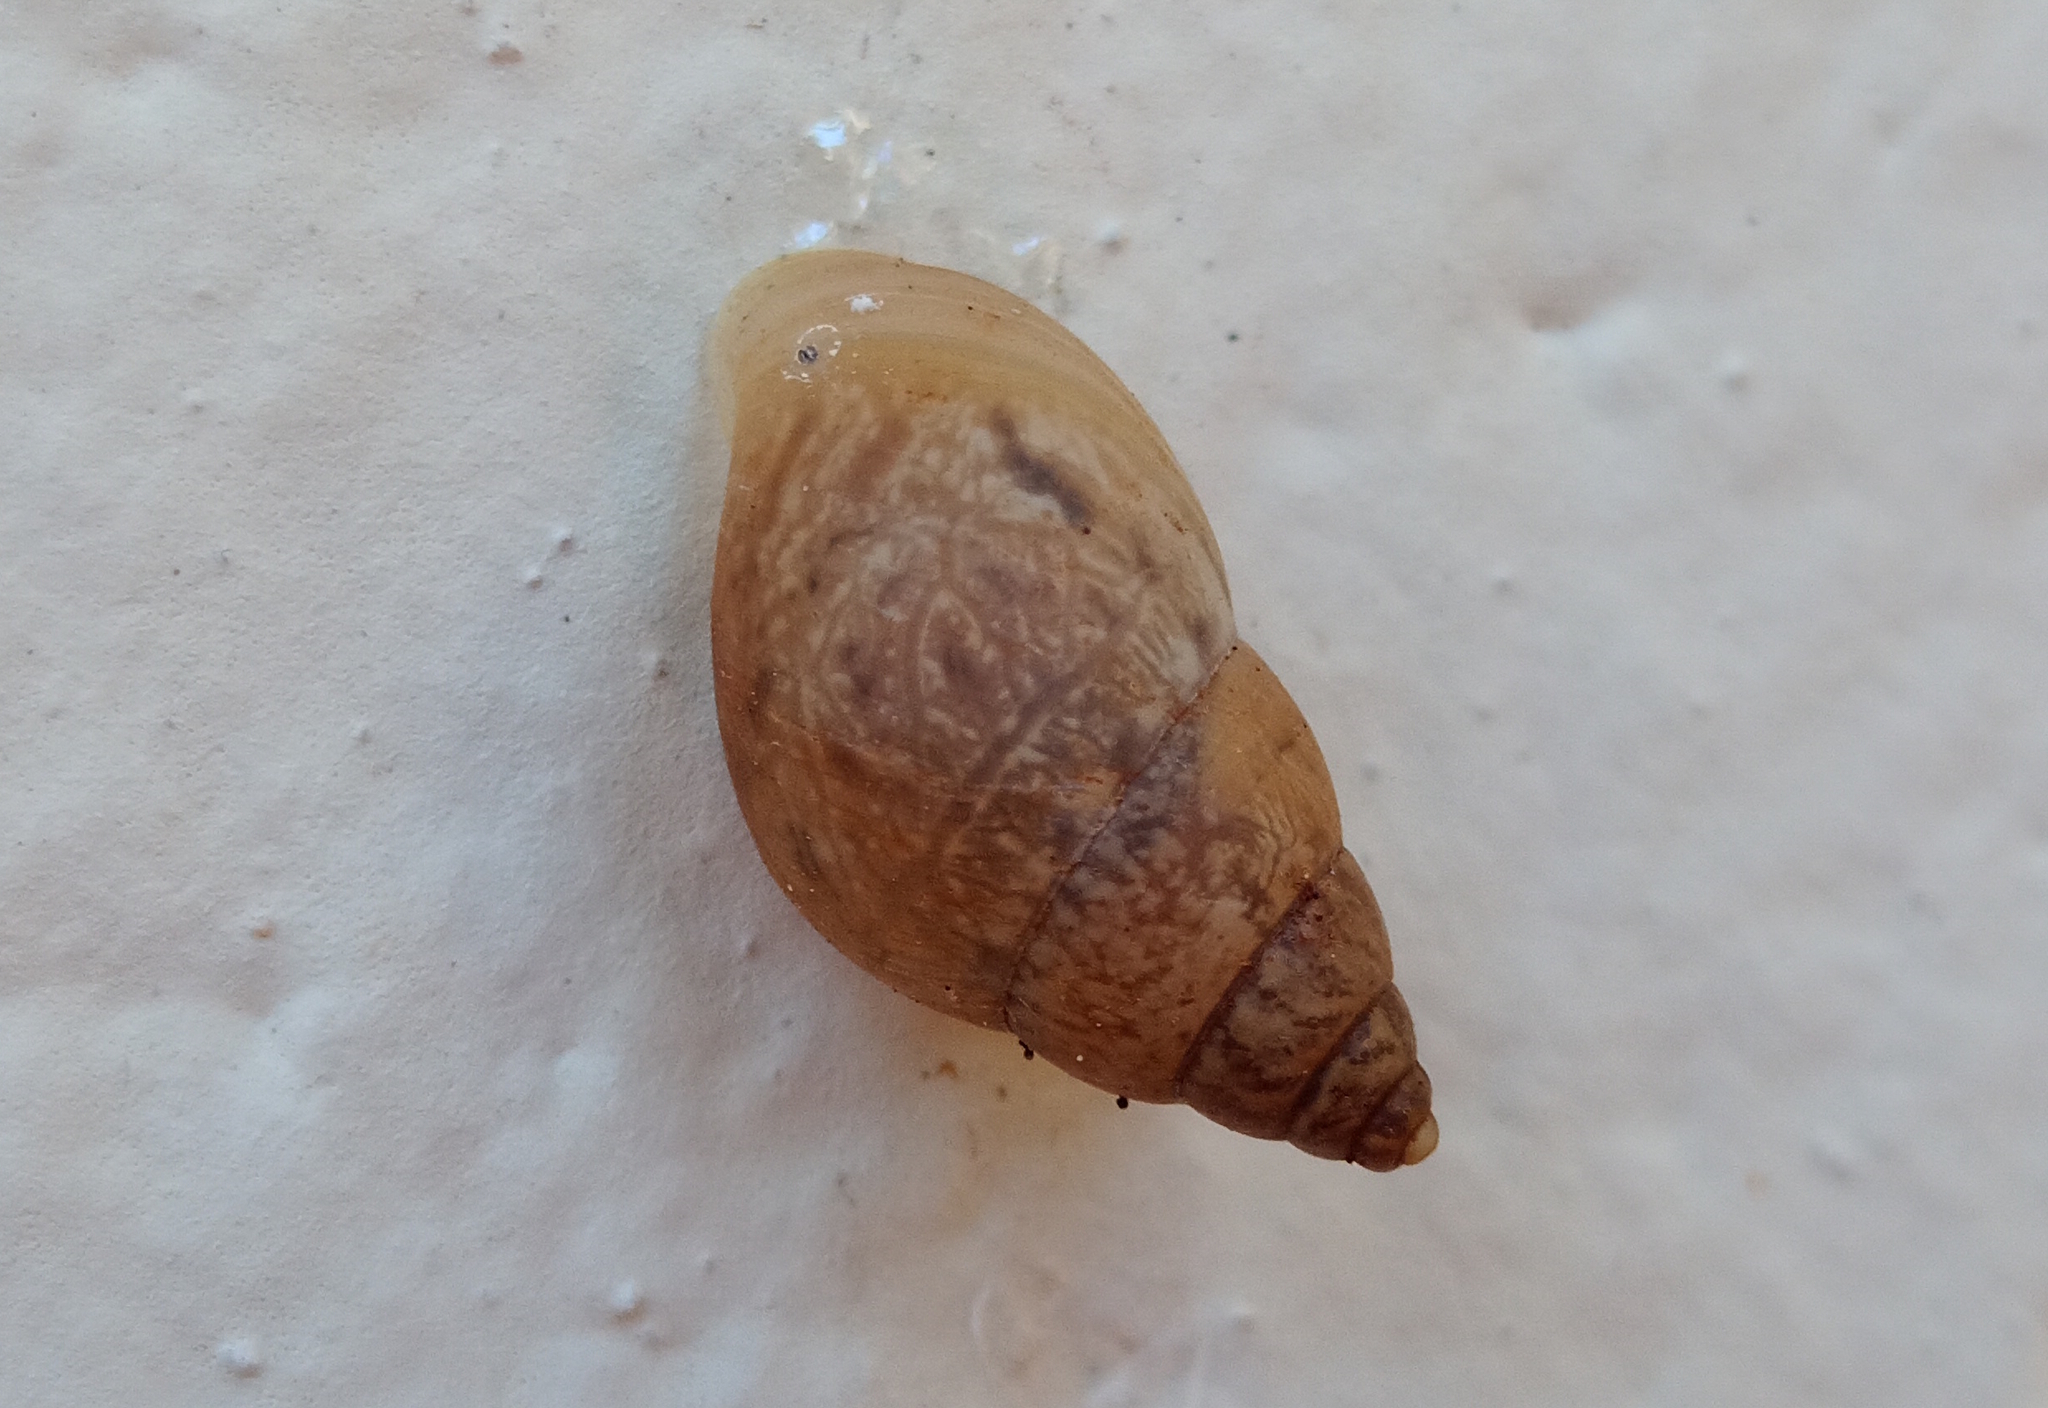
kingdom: Animalia
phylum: Mollusca
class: Gastropoda
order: Stylommatophora
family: Bulimulidae
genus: Bulimulus
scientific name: Bulimulus tenuissimus
